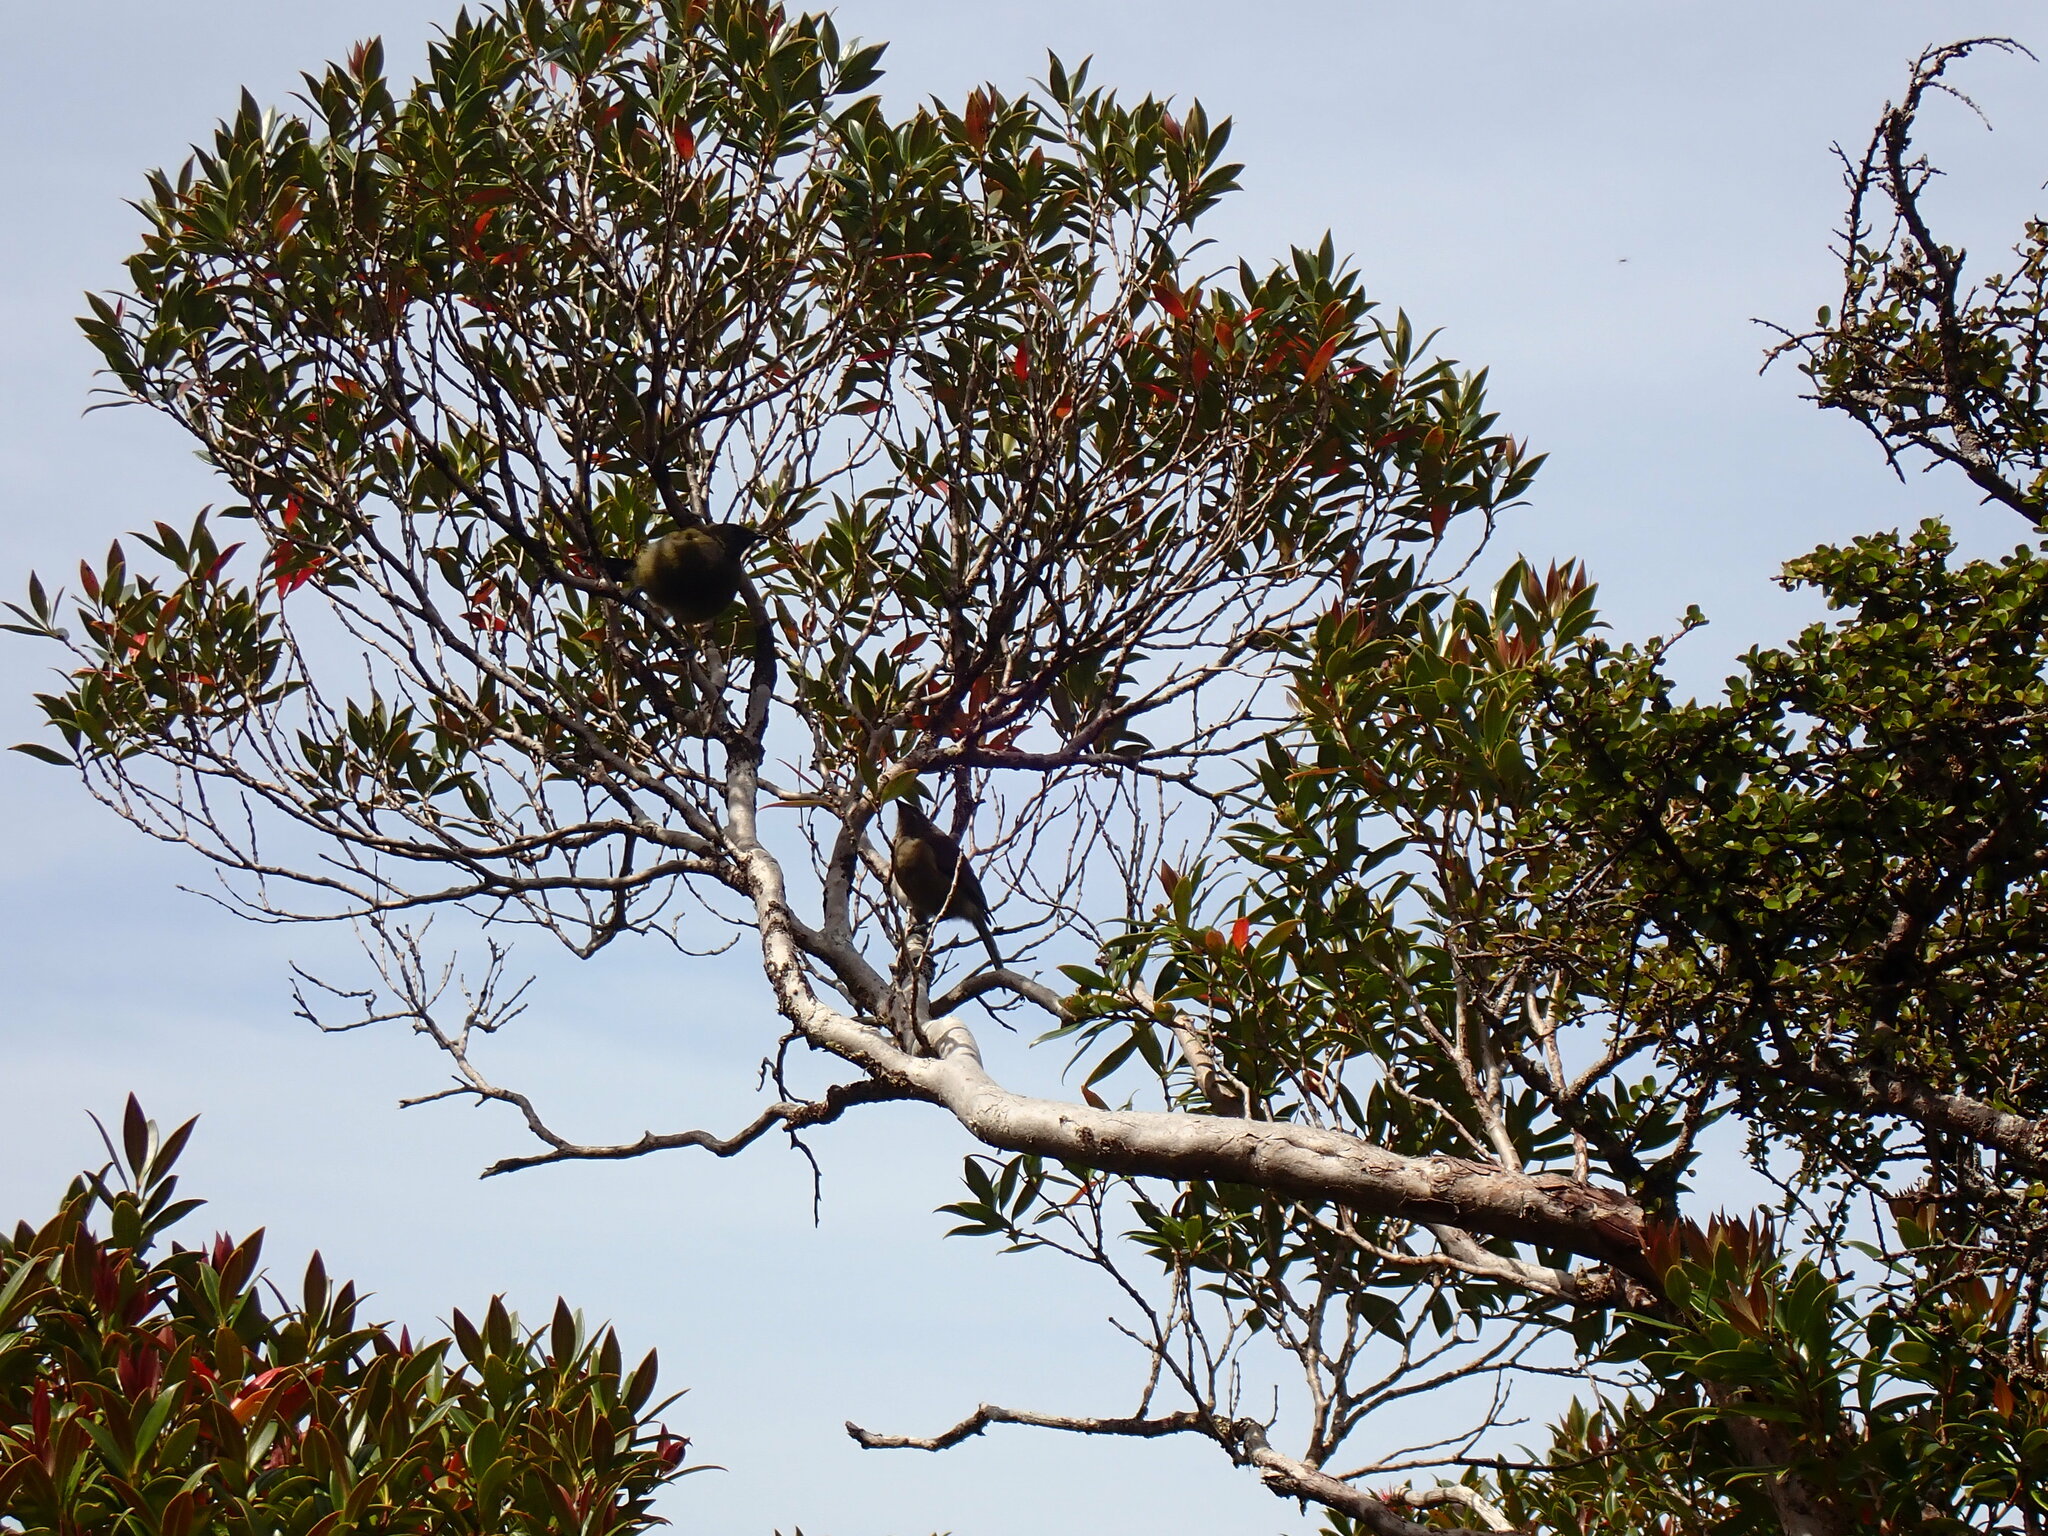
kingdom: Animalia
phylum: Chordata
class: Aves
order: Passeriformes
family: Meliphagidae
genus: Anthornis
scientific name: Anthornis melanura
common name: New zealand bellbird
